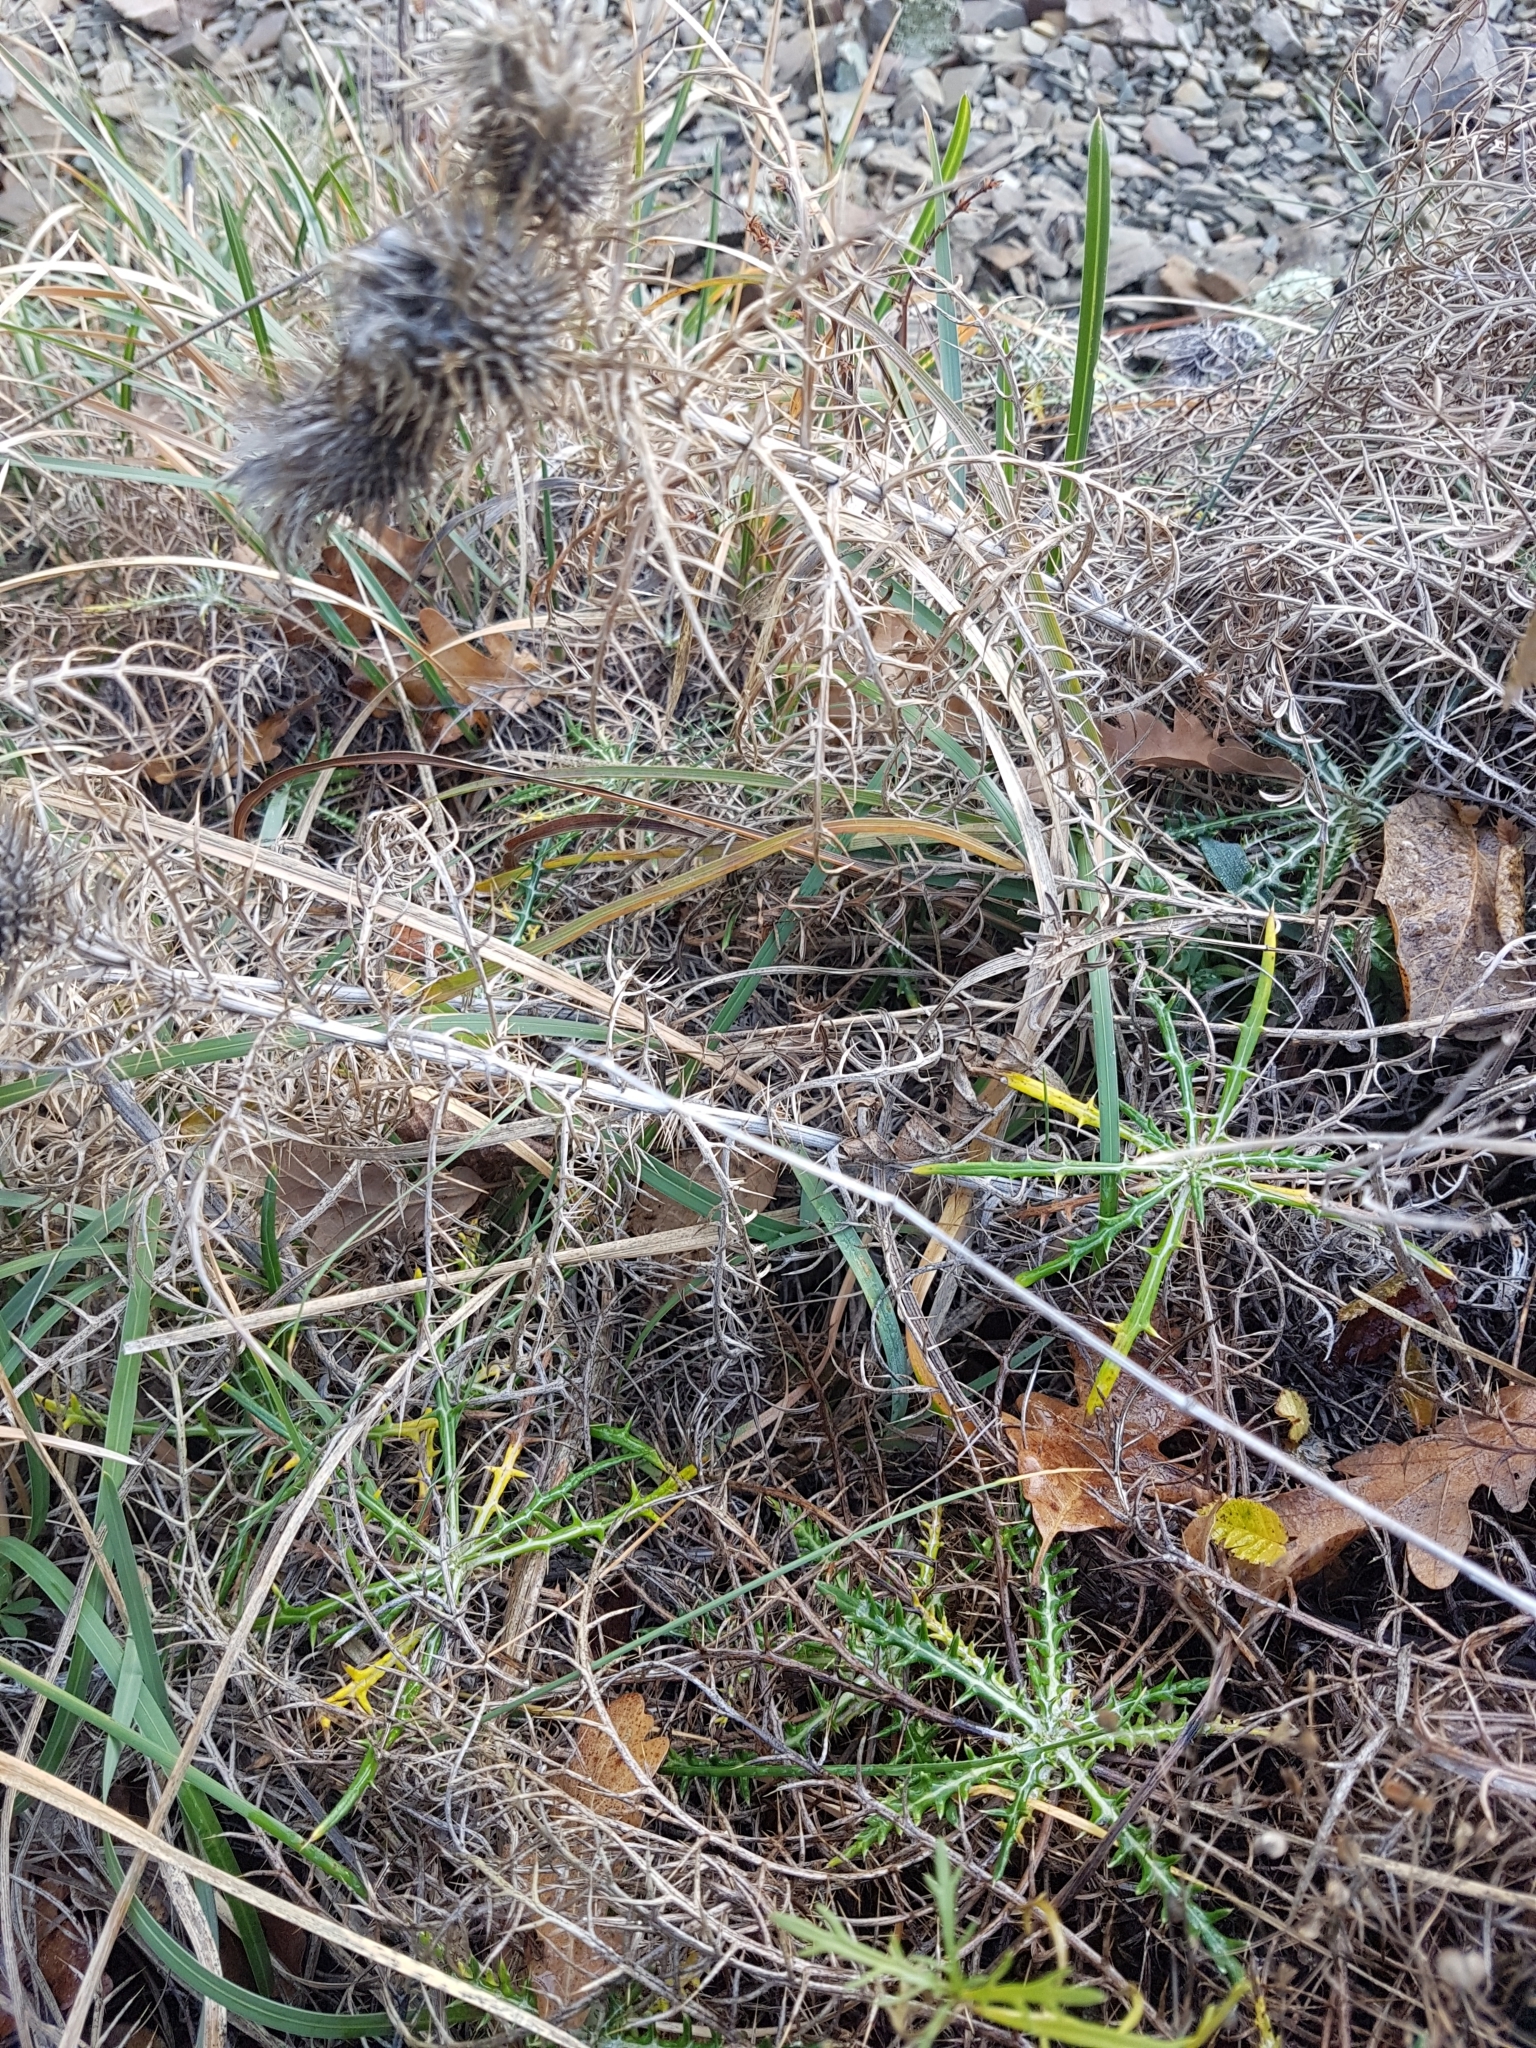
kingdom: Plantae
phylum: Tracheophyta
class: Magnoliopsida
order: Asterales
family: Asteraceae
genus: Ptilostemon
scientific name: Ptilostemon echinocephalus
